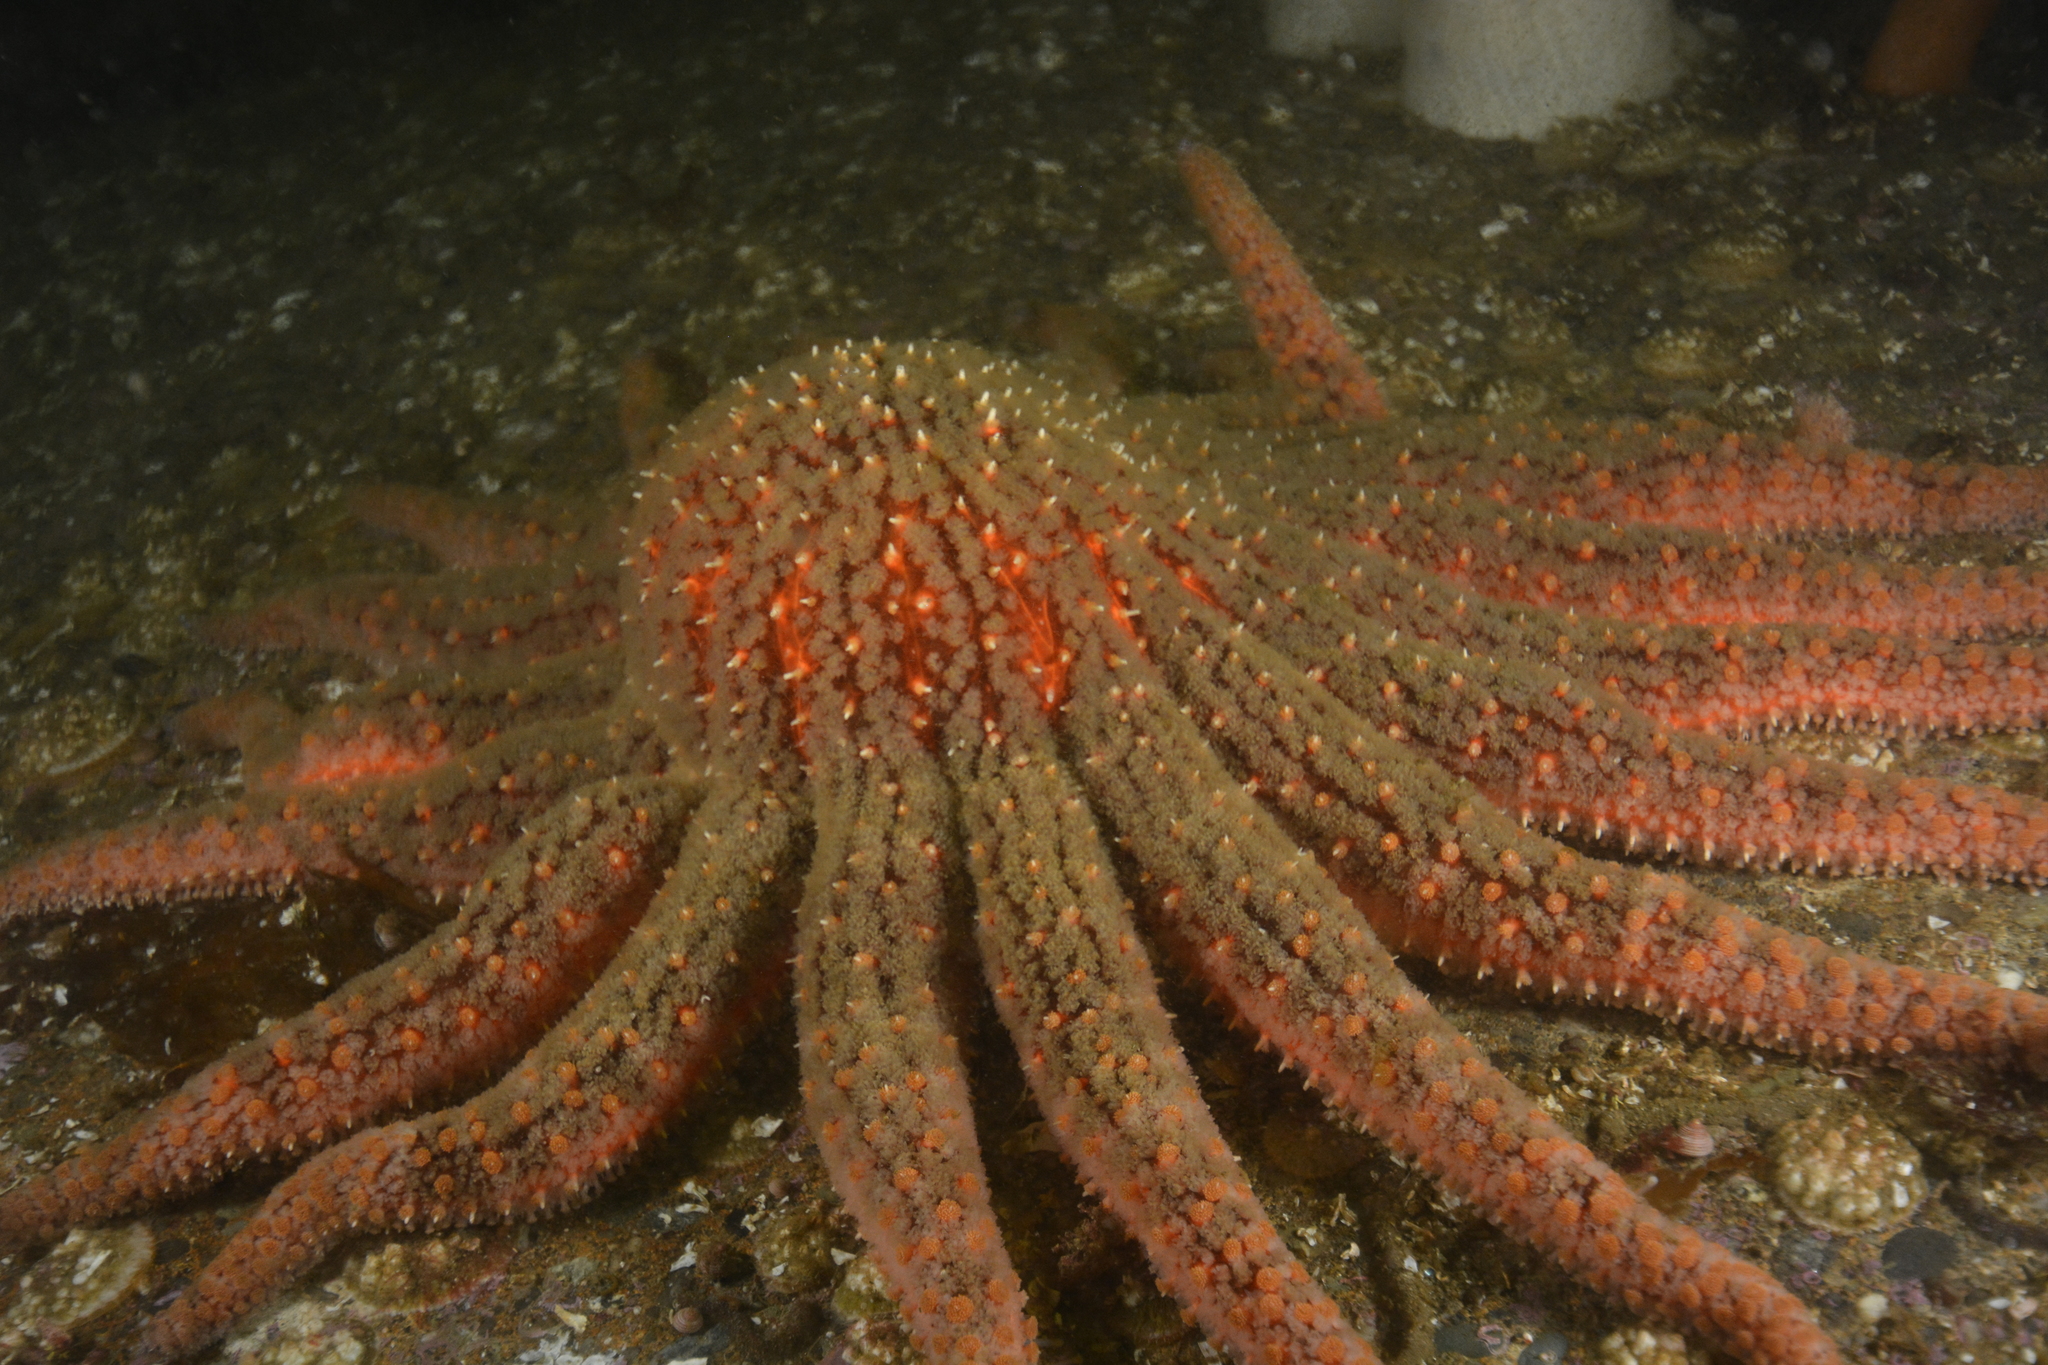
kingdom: Animalia
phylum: Echinodermata
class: Asteroidea
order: Forcipulatida
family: Asteriidae
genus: Pycnopodia
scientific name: Pycnopodia helianthoides
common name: Rag mop
